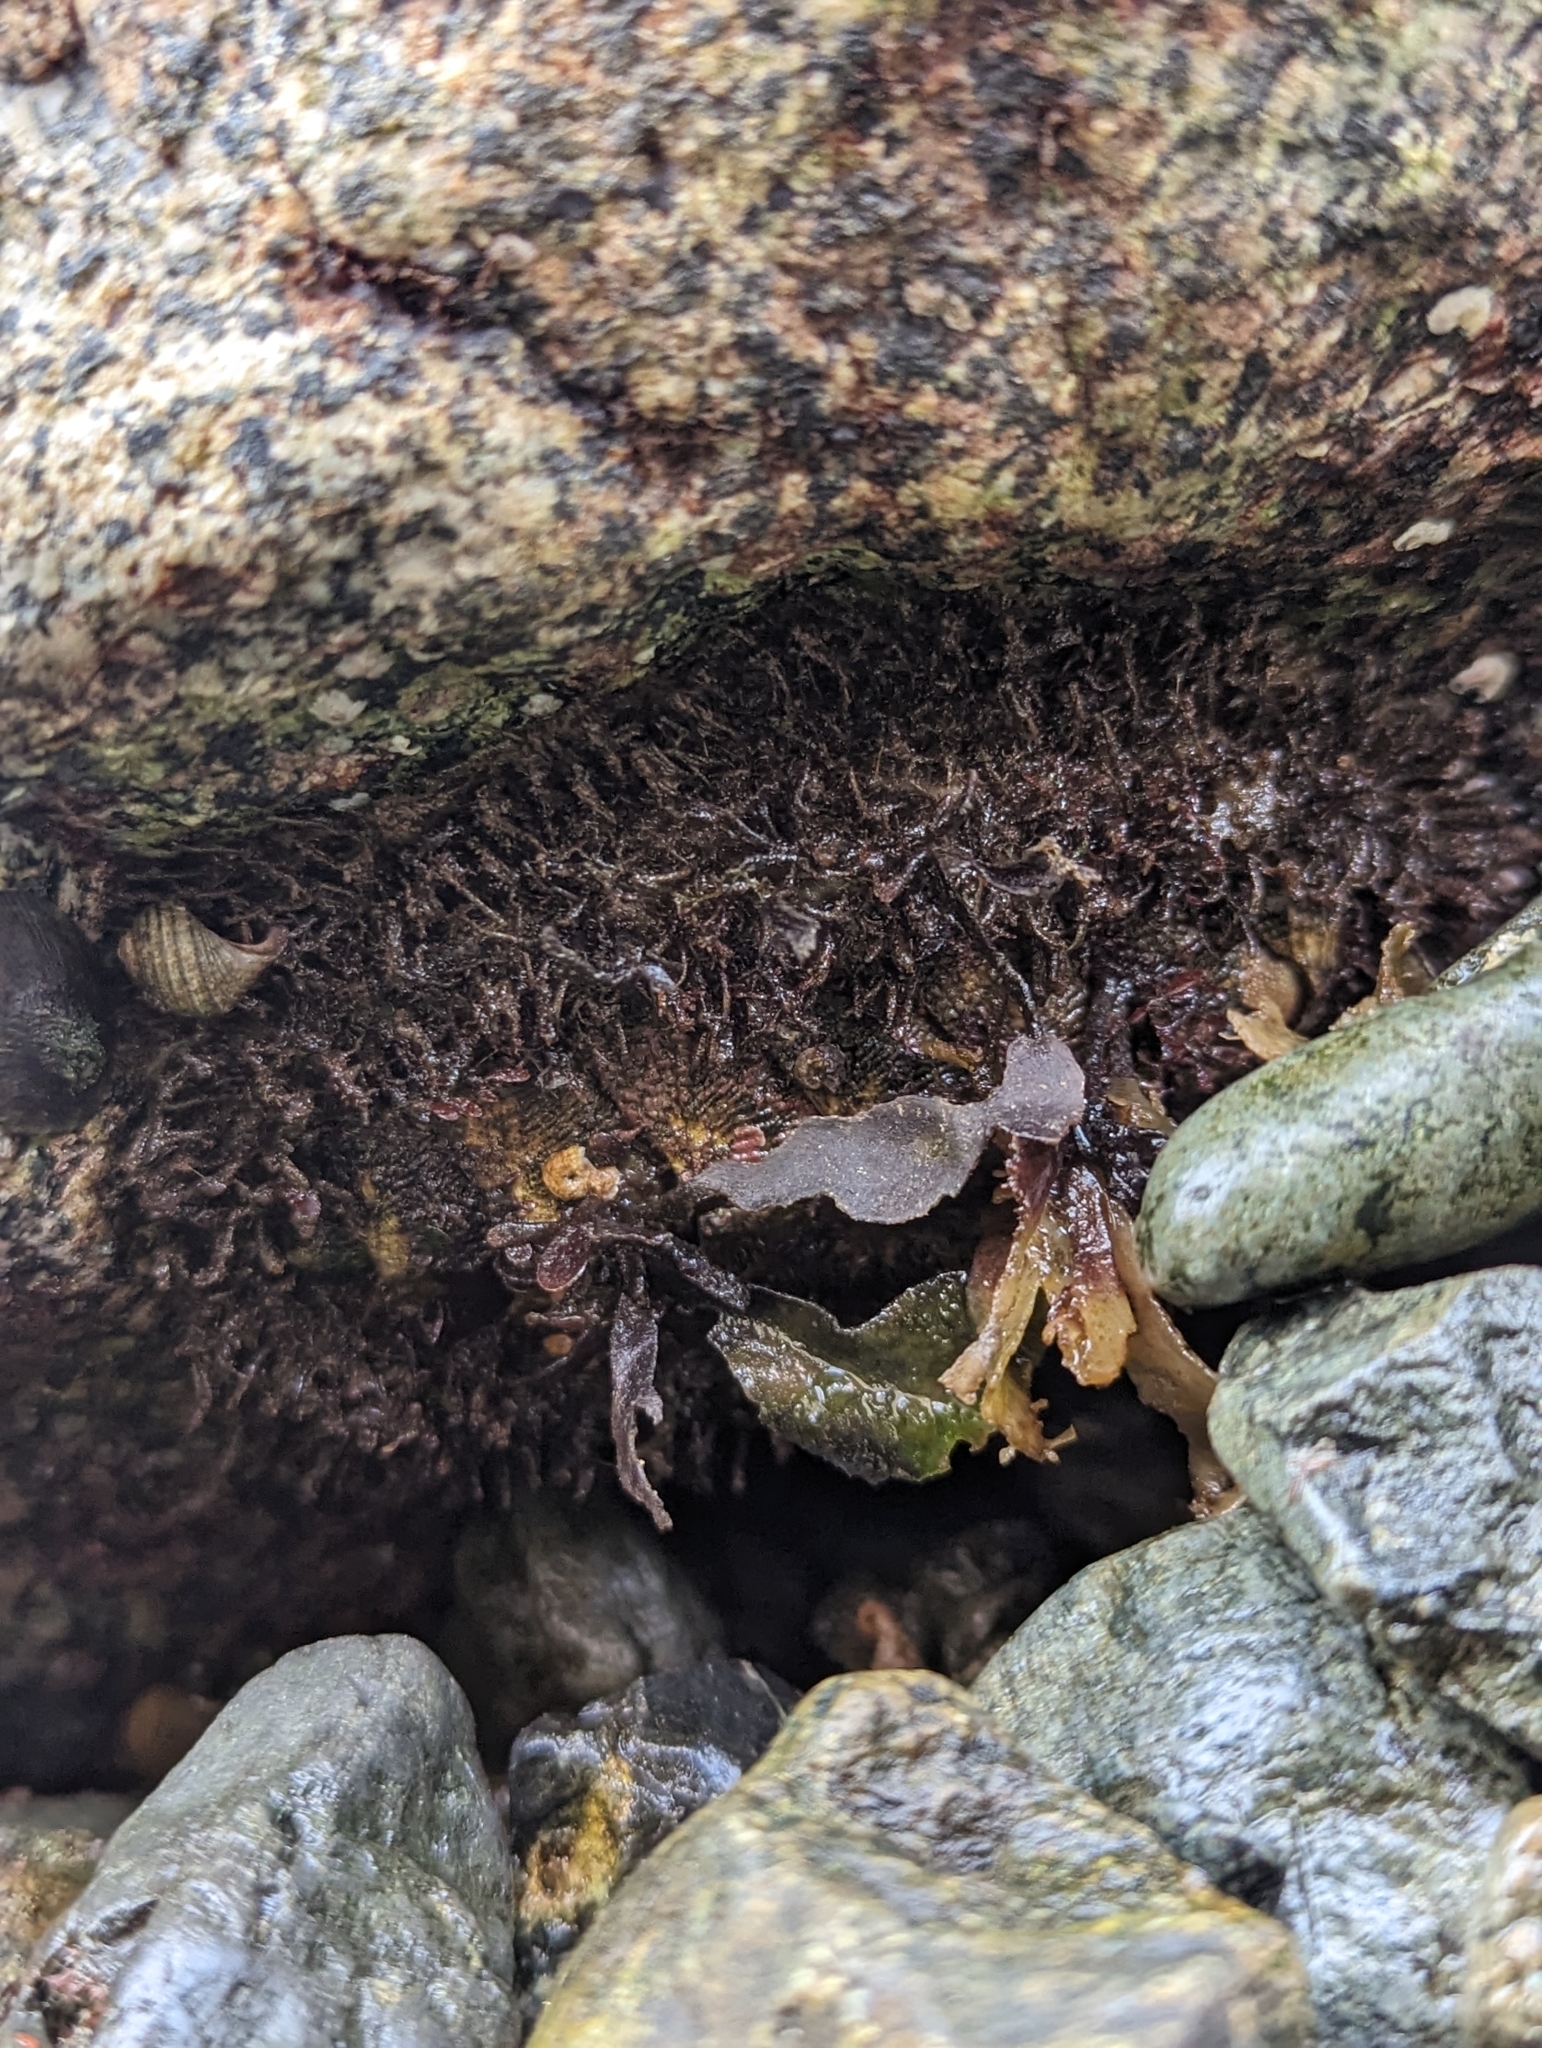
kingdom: Animalia
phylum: Mollusca
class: Polyplacophora
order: Chitonida
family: Mopaliidae
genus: Mopalia
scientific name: Mopalia muscosa
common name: Mossy chiton
